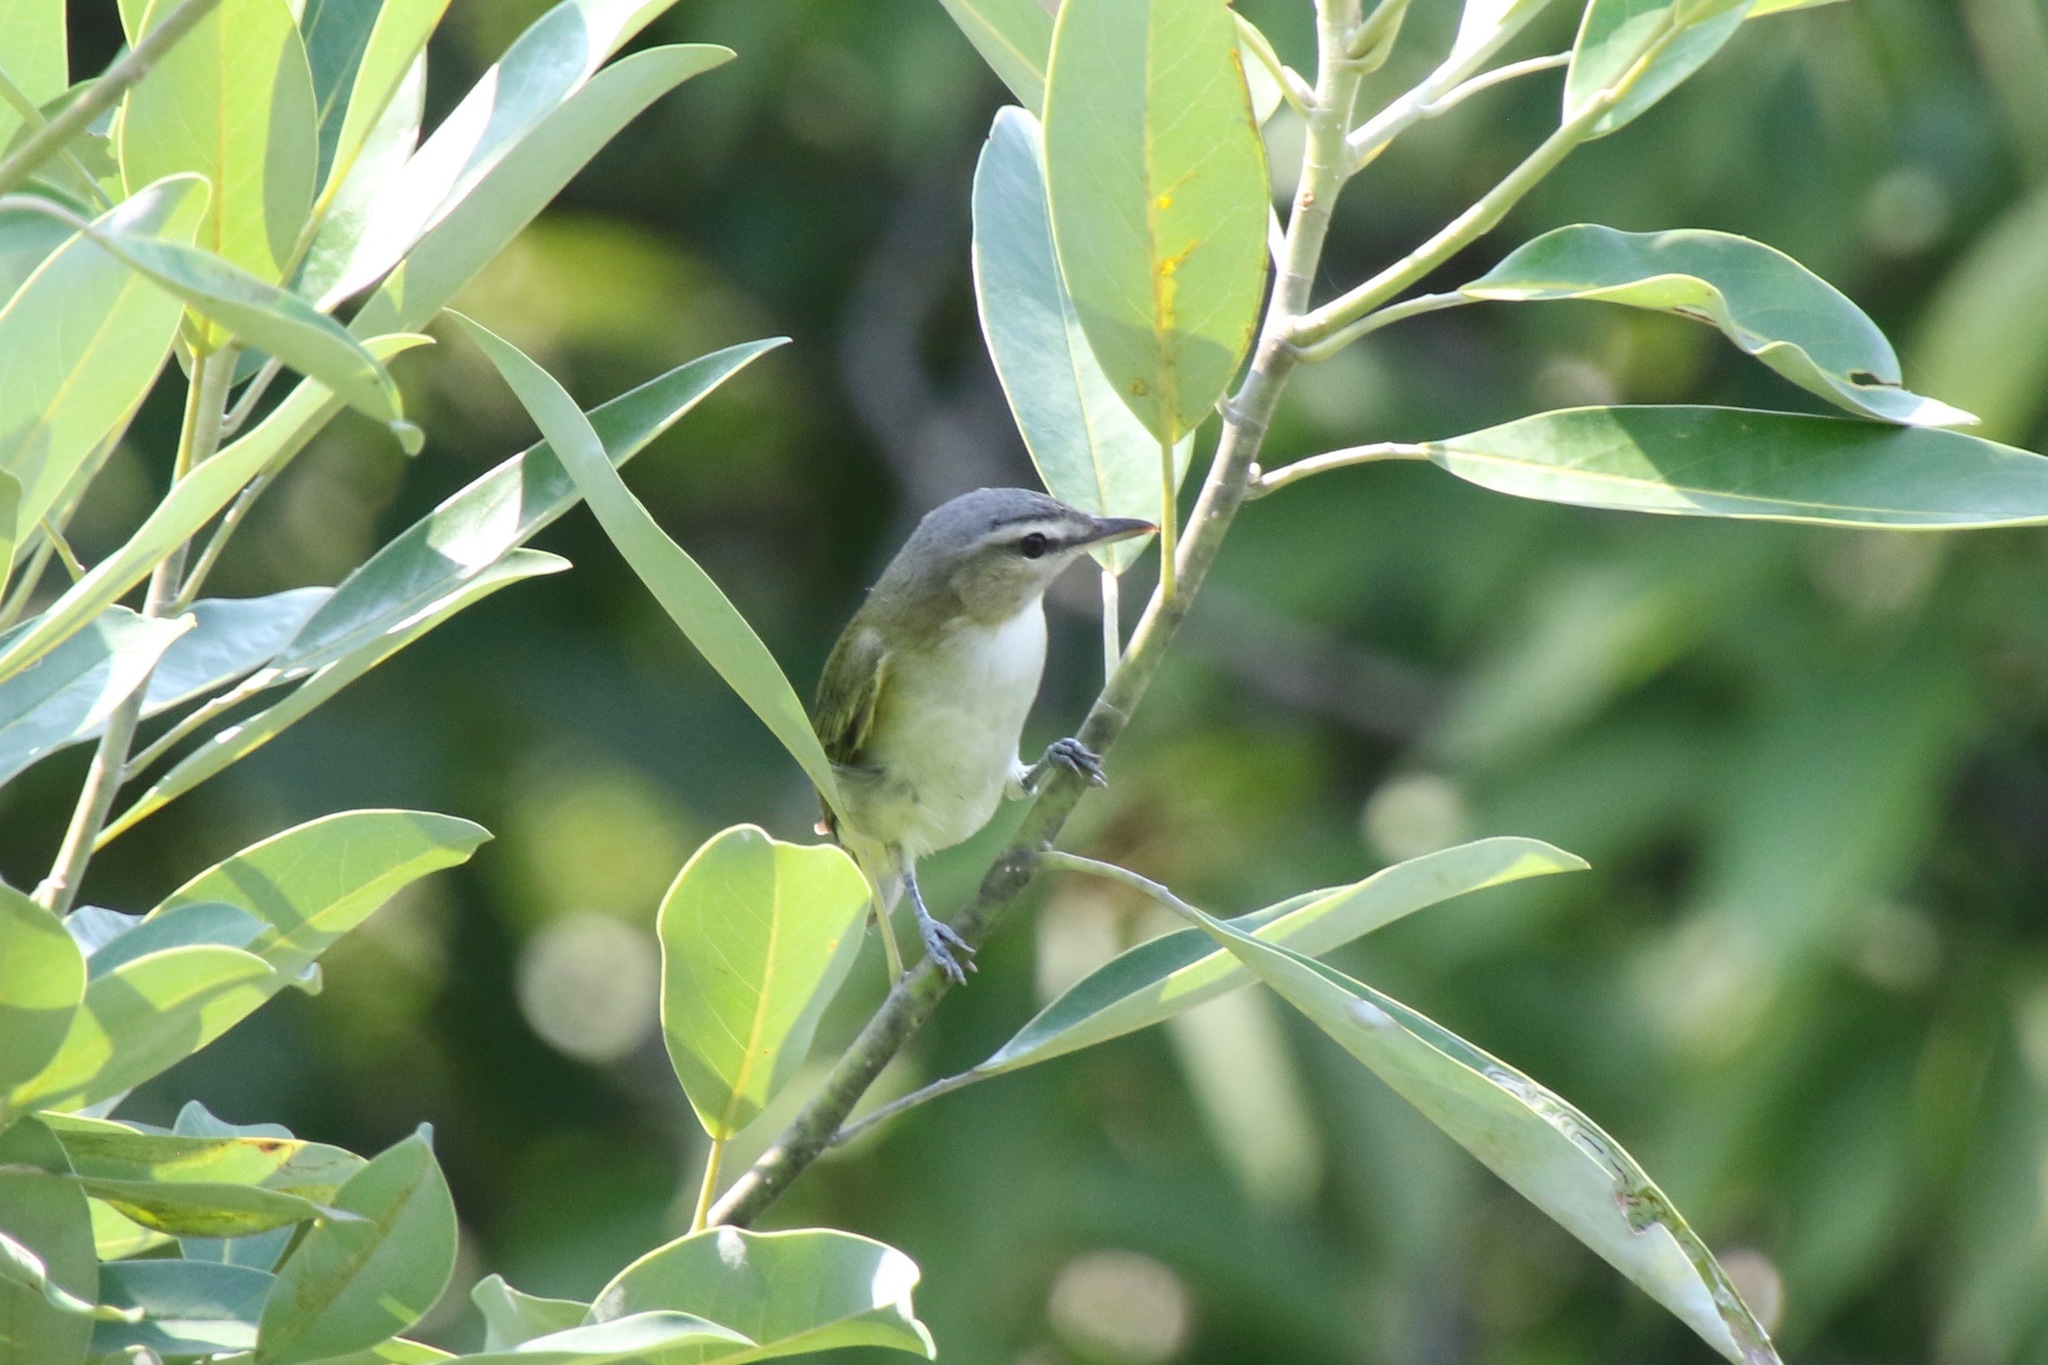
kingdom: Animalia
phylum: Chordata
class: Aves
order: Passeriformes
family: Vireonidae
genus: Vireo
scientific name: Vireo olivaceus
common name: Red-eyed vireo
